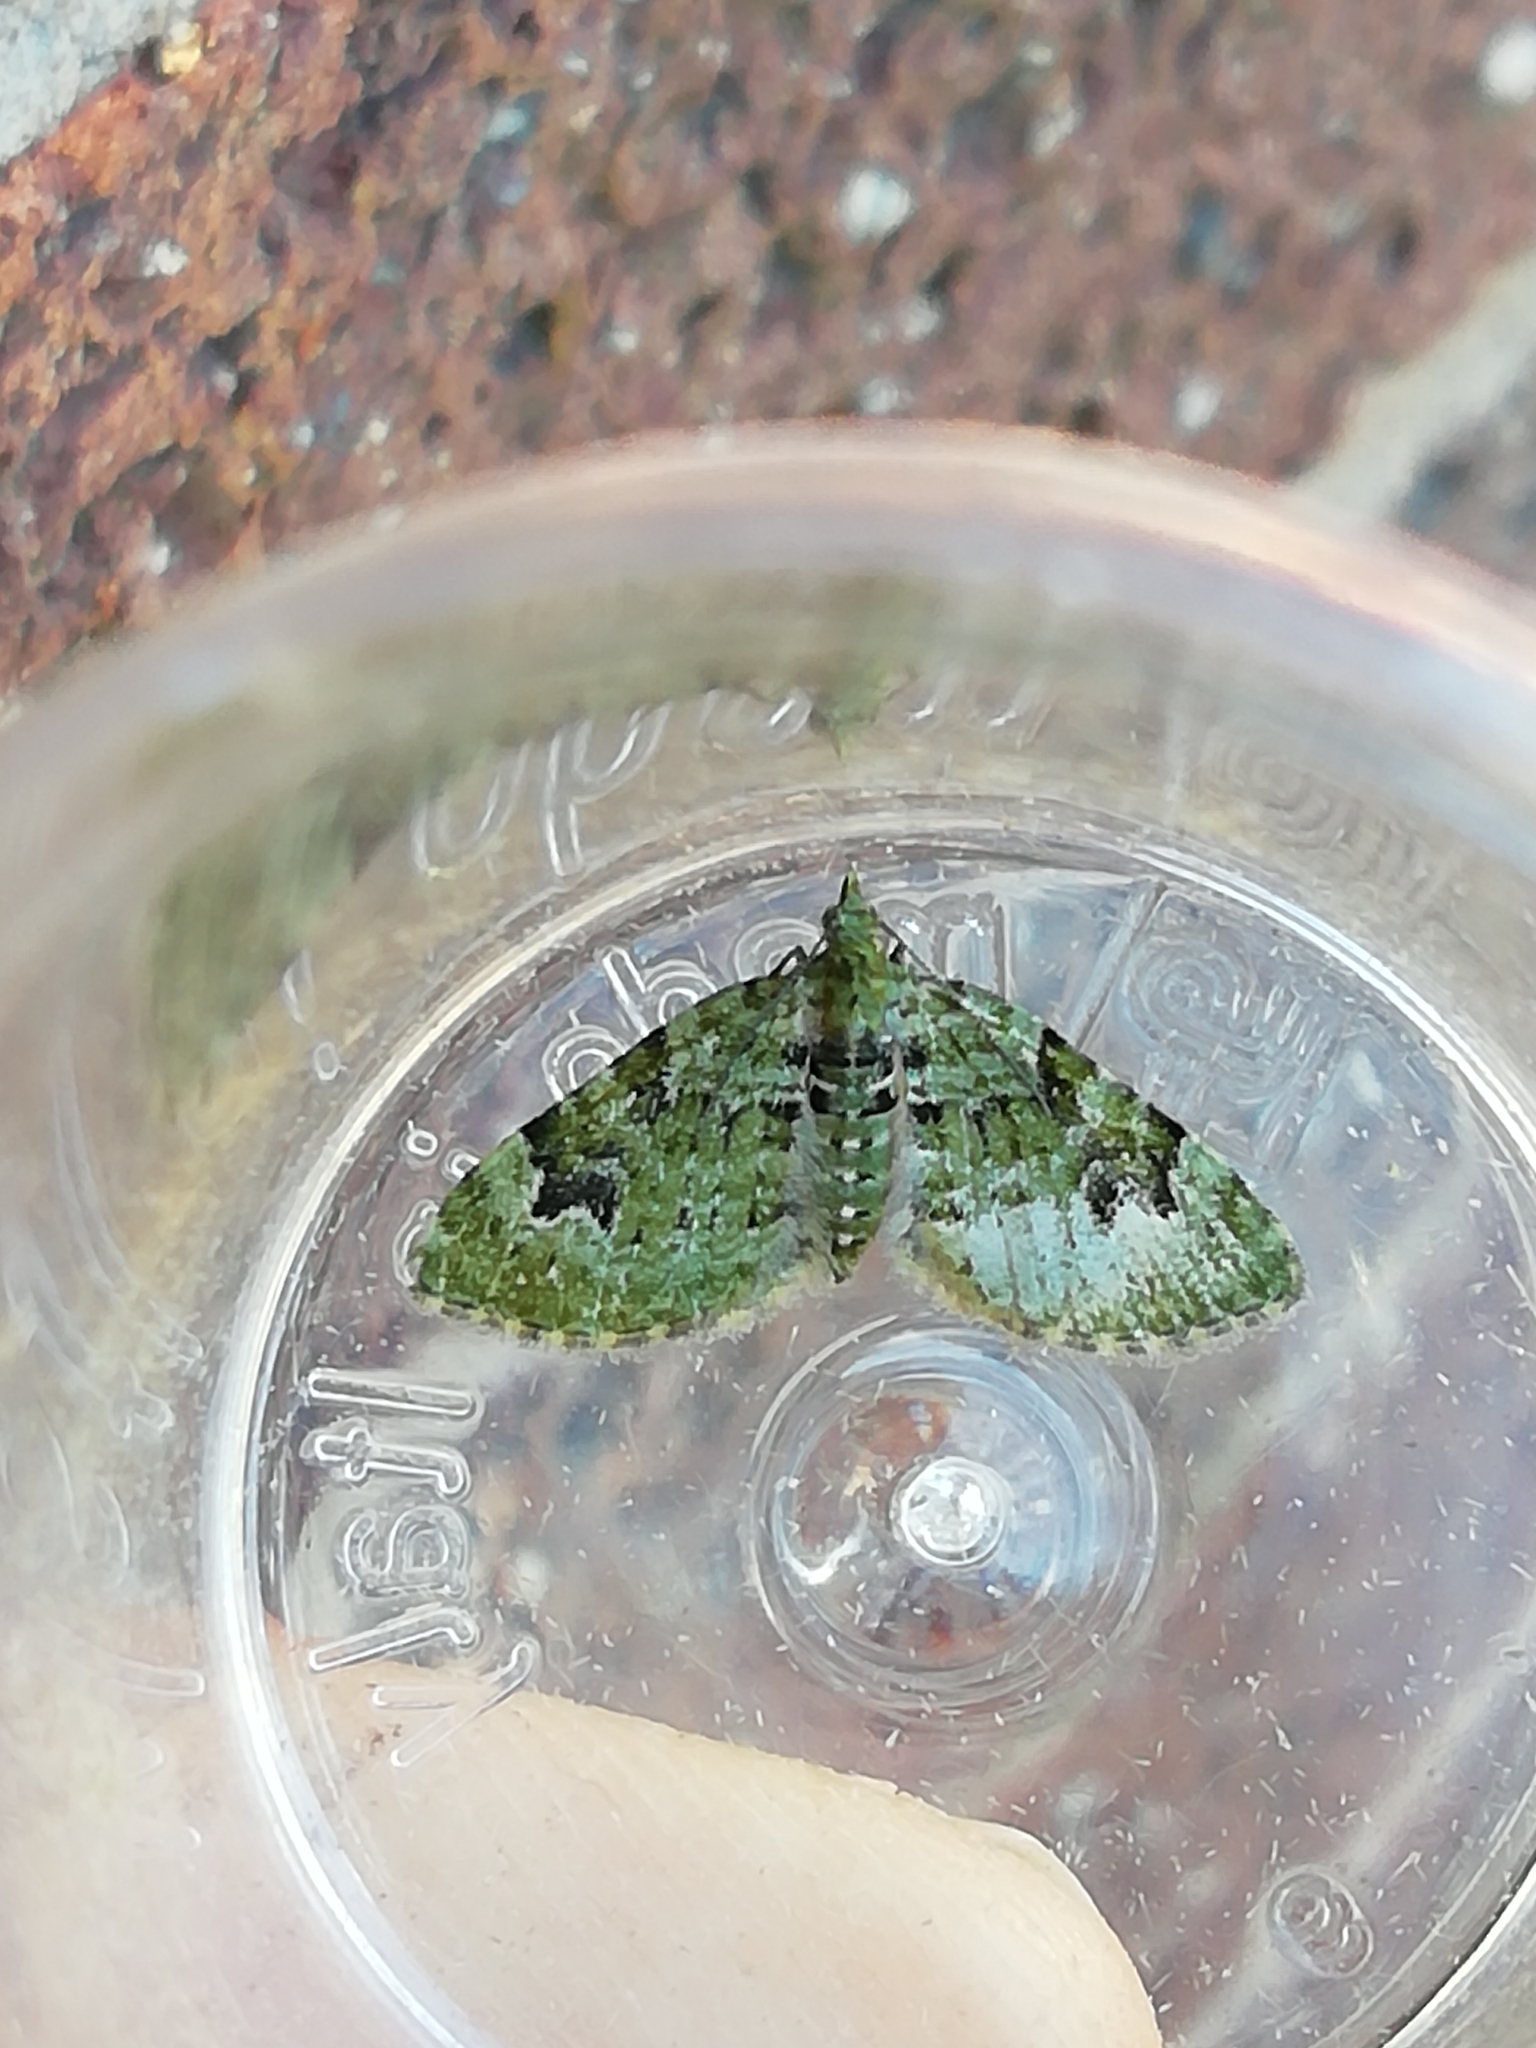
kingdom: Animalia
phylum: Arthropoda
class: Insecta
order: Lepidoptera
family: Geometridae
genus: Chloroclystis
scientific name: Chloroclystis v-ata
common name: V-pug
